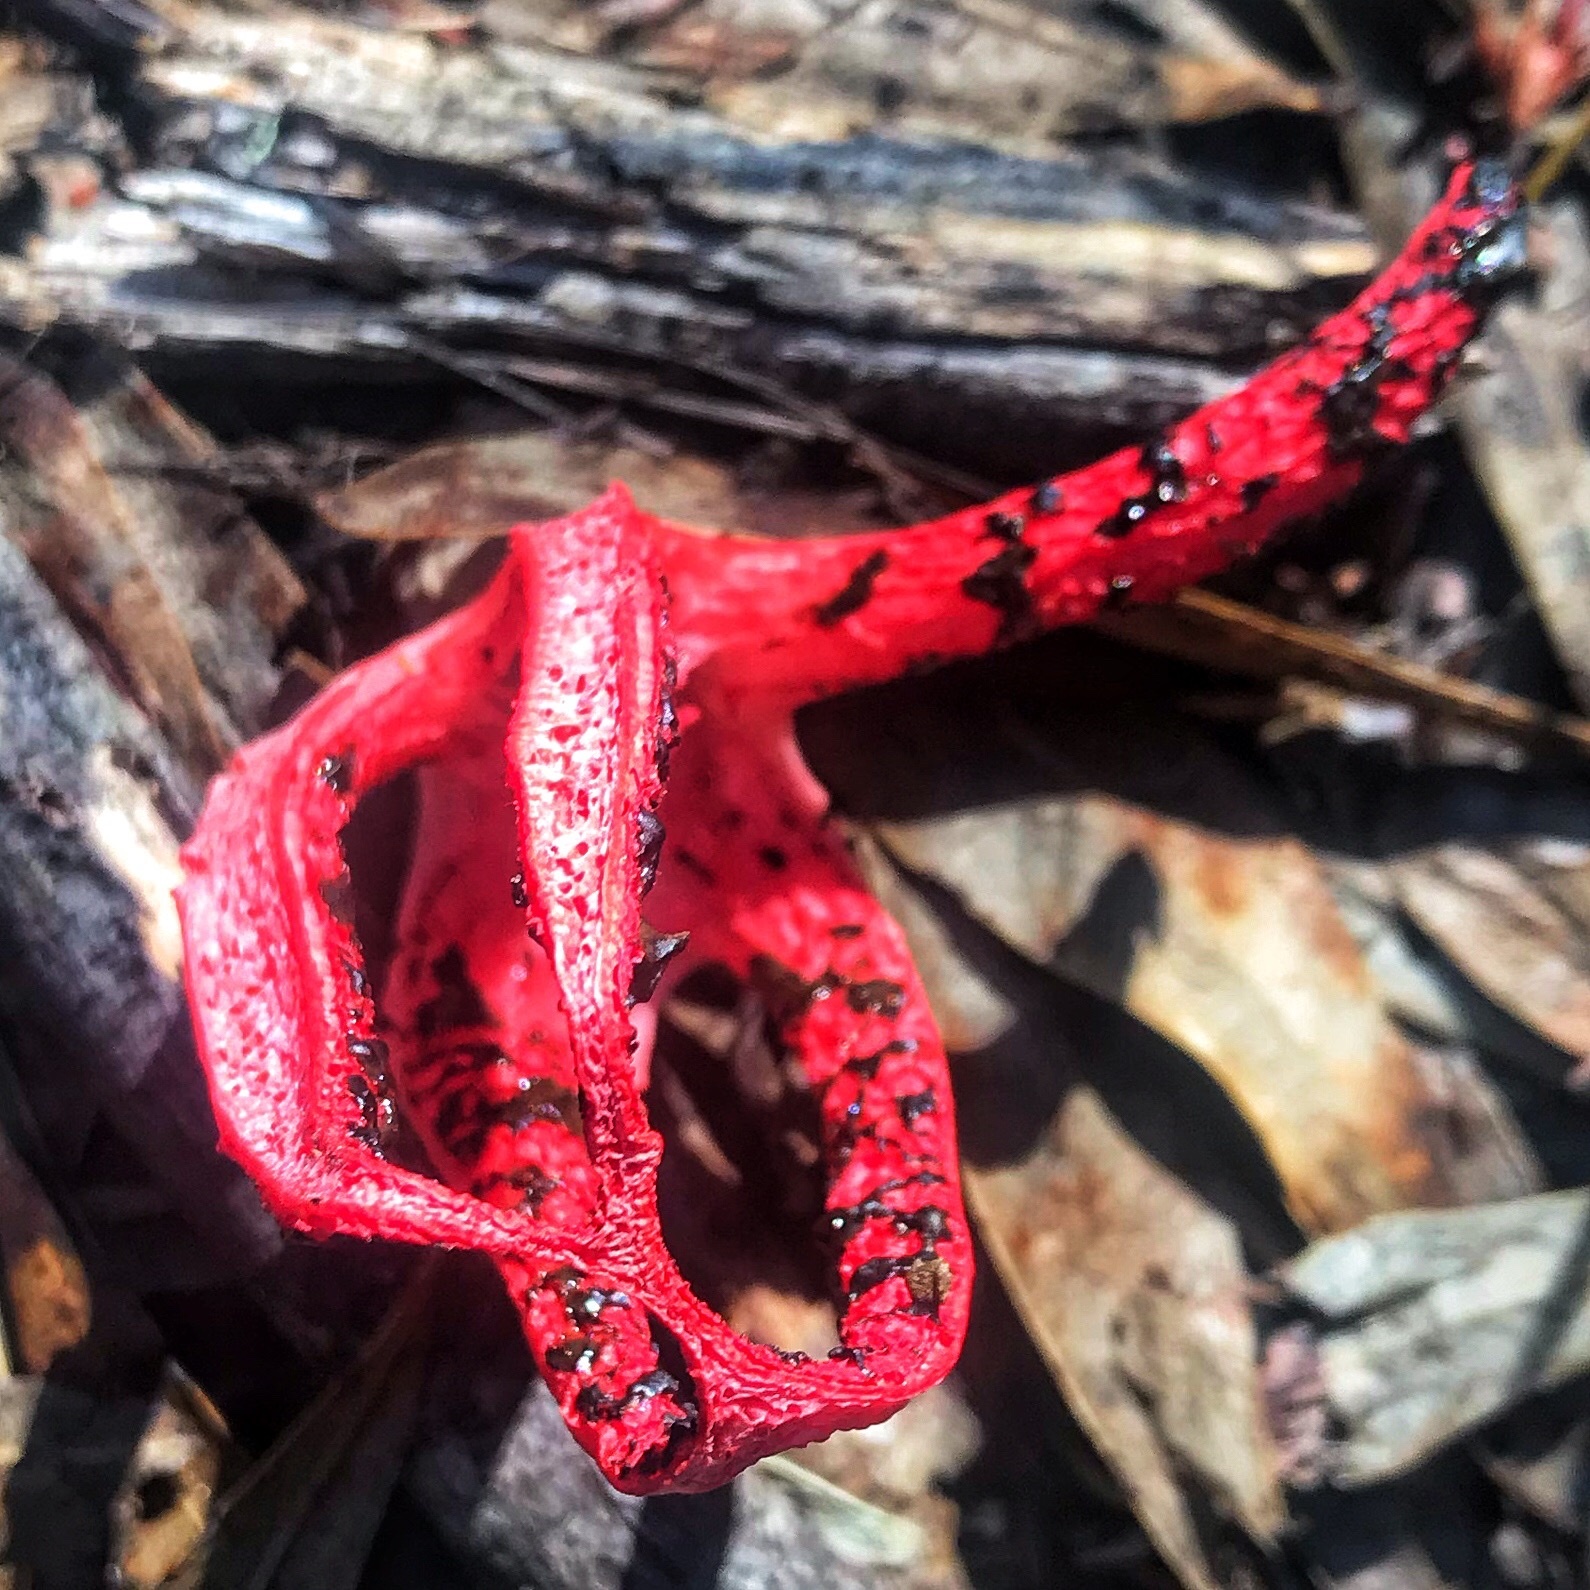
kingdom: Fungi
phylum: Basidiomycota
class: Agaricomycetes
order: Phallales
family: Phallaceae
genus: Clathrus
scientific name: Clathrus archeri
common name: Devil's fingers
